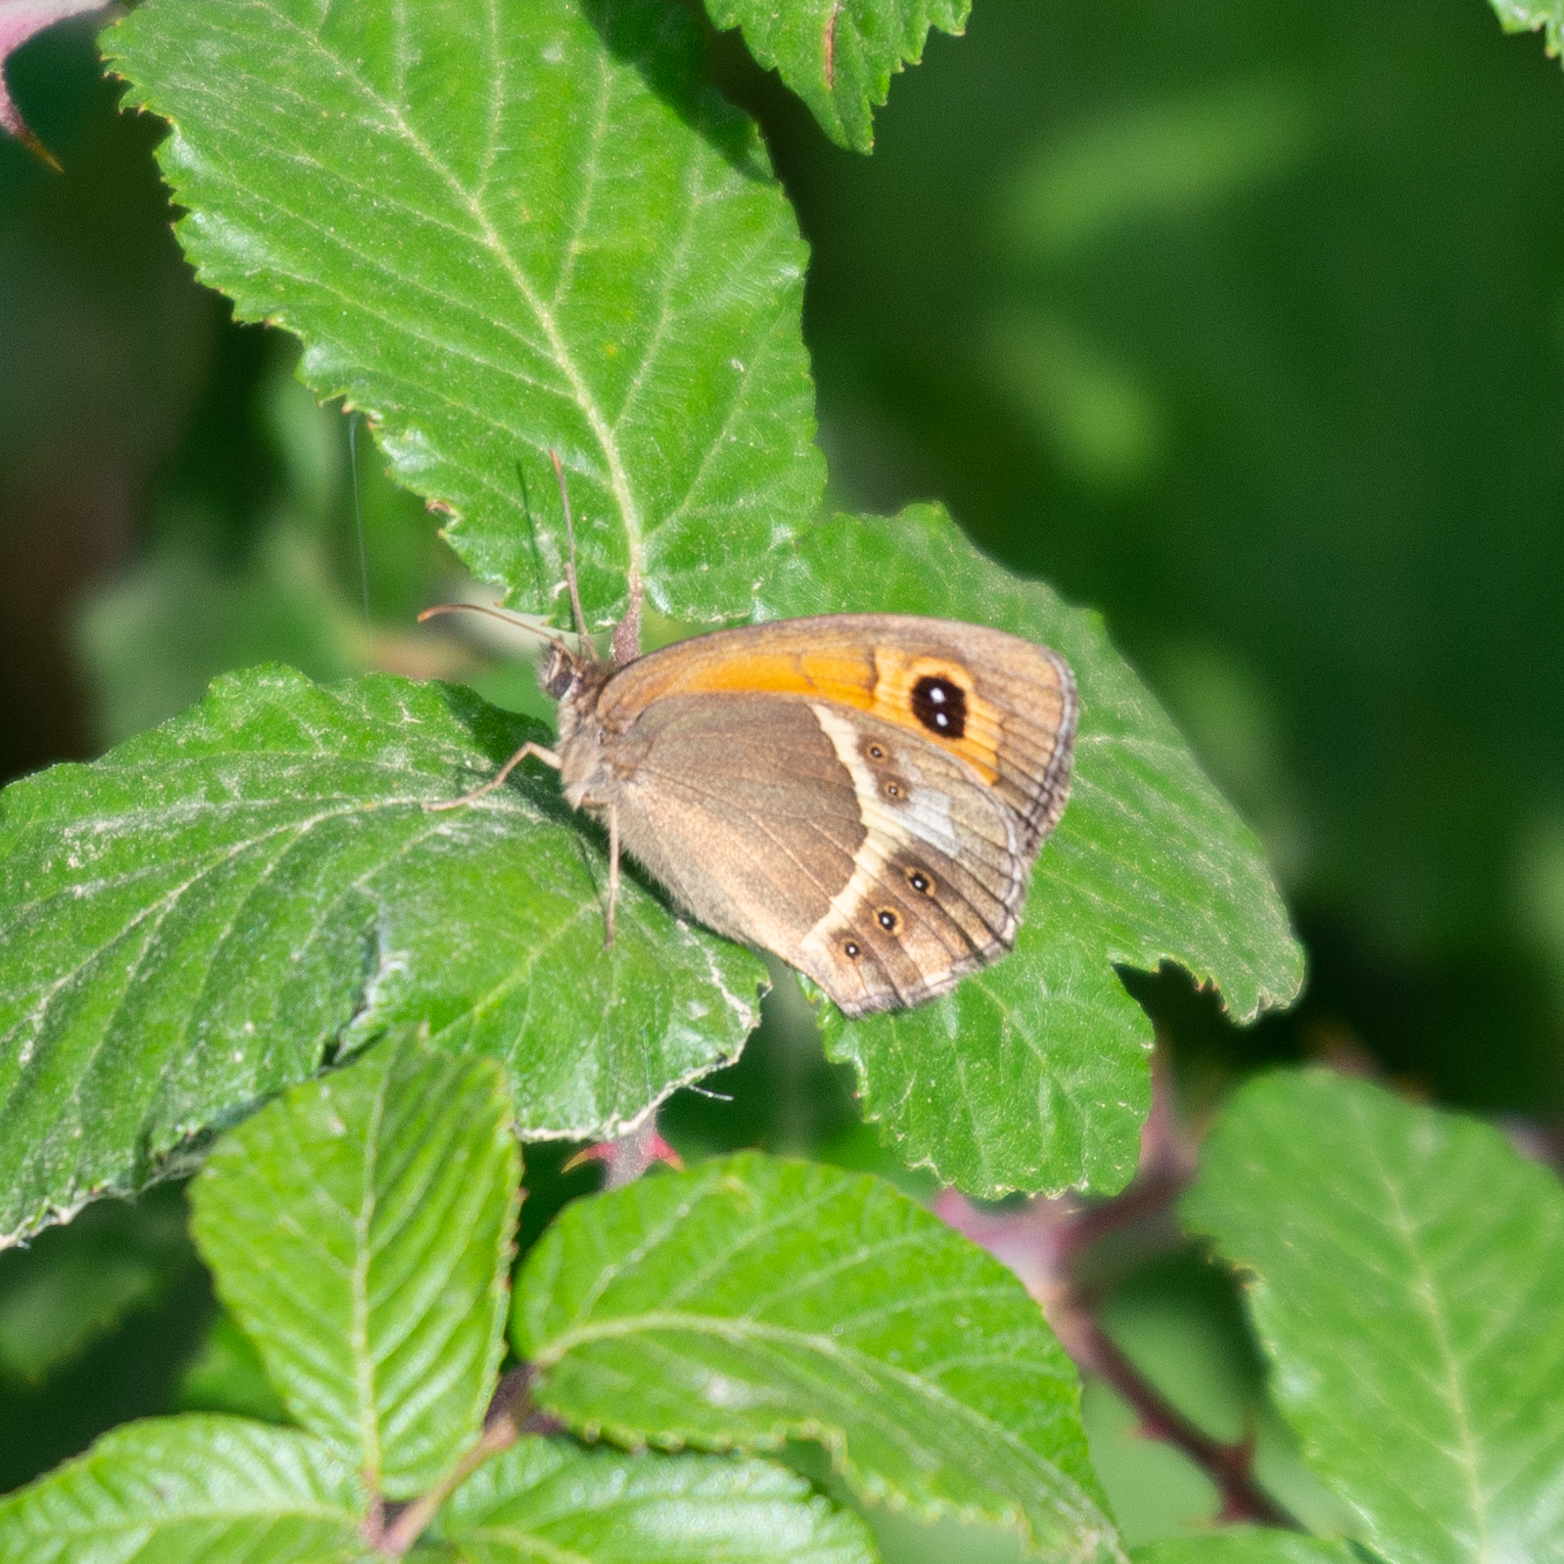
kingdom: Animalia
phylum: Arthropoda
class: Insecta
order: Lepidoptera
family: Nymphalidae
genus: Pyronia
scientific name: Pyronia bathseba
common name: Spanish gatekeeper
